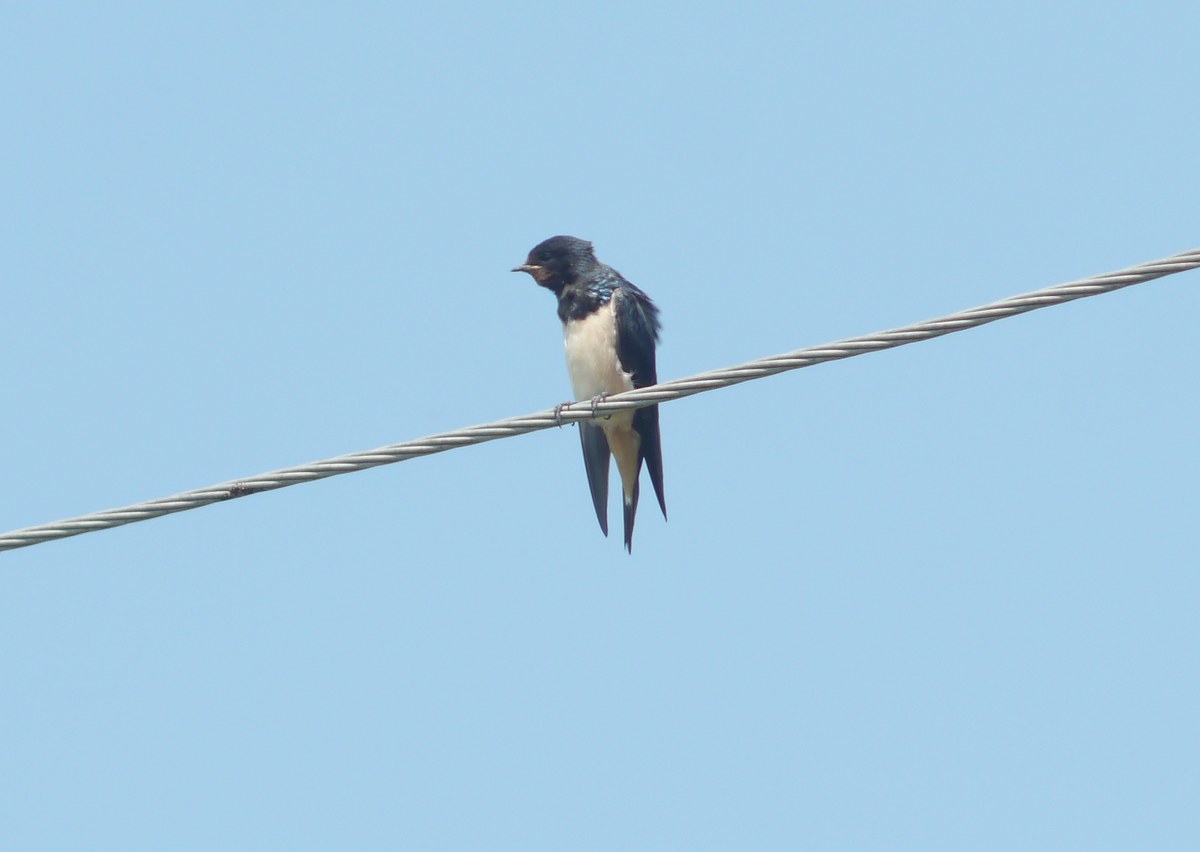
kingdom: Animalia
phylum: Chordata
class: Aves
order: Passeriformes
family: Hirundinidae
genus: Hirundo
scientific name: Hirundo rustica
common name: Barn swallow
